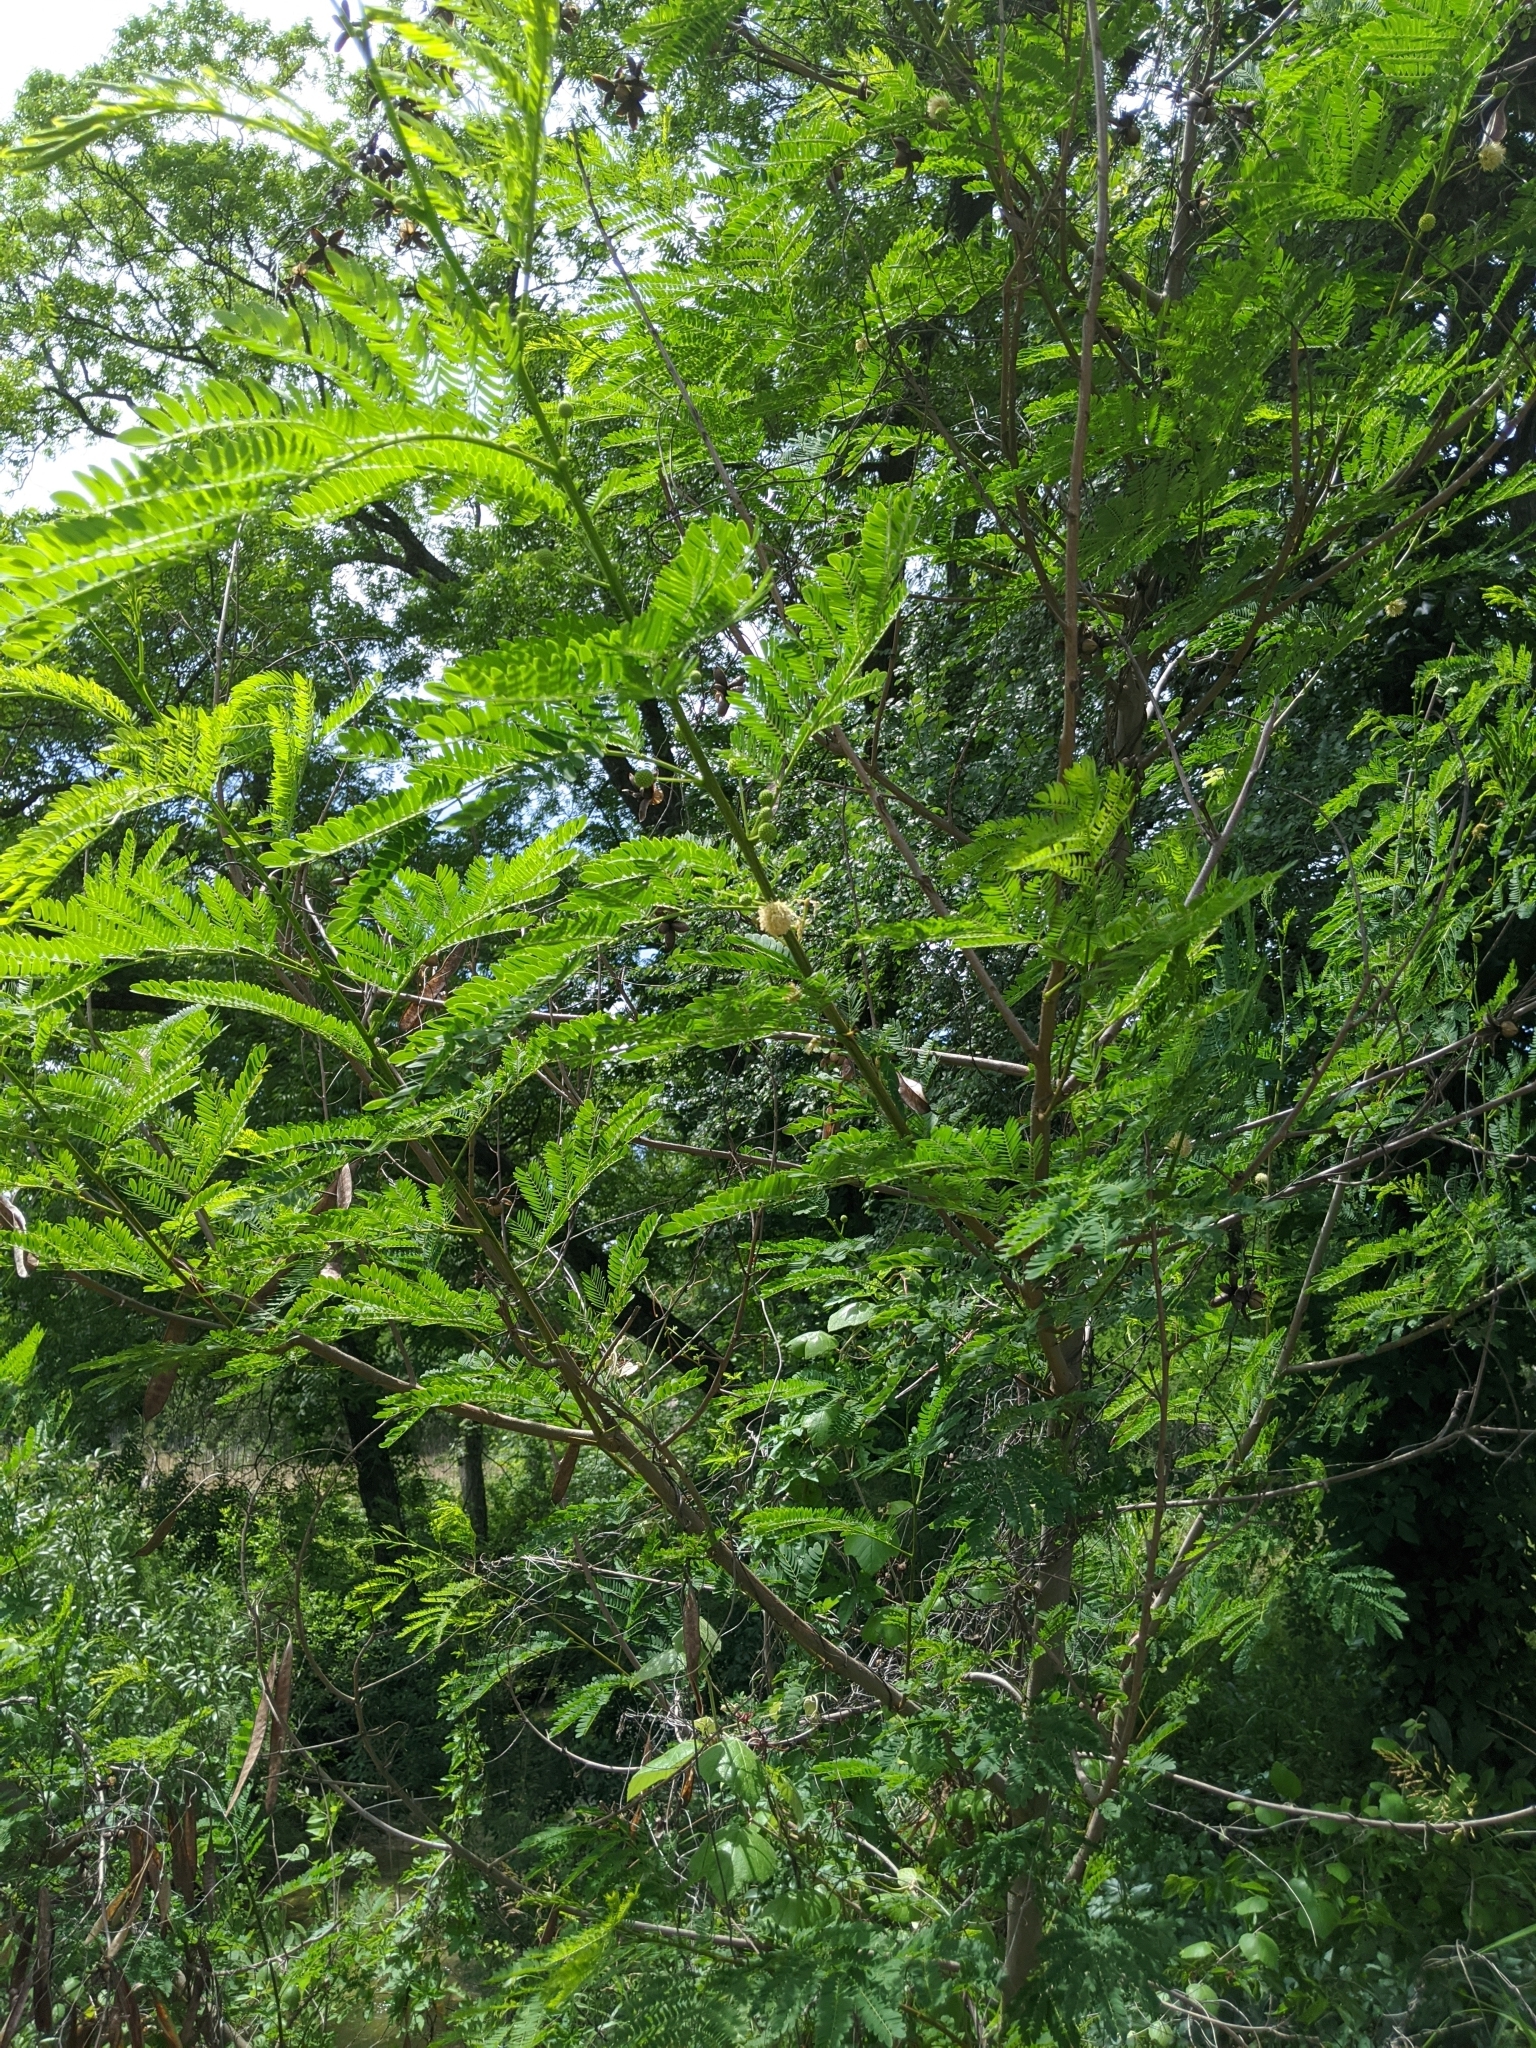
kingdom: Plantae
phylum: Tracheophyta
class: Magnoliopsida
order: Fabales
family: Fabaceae
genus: Leucaena
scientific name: Leucaena leucocephala
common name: White leadtree
